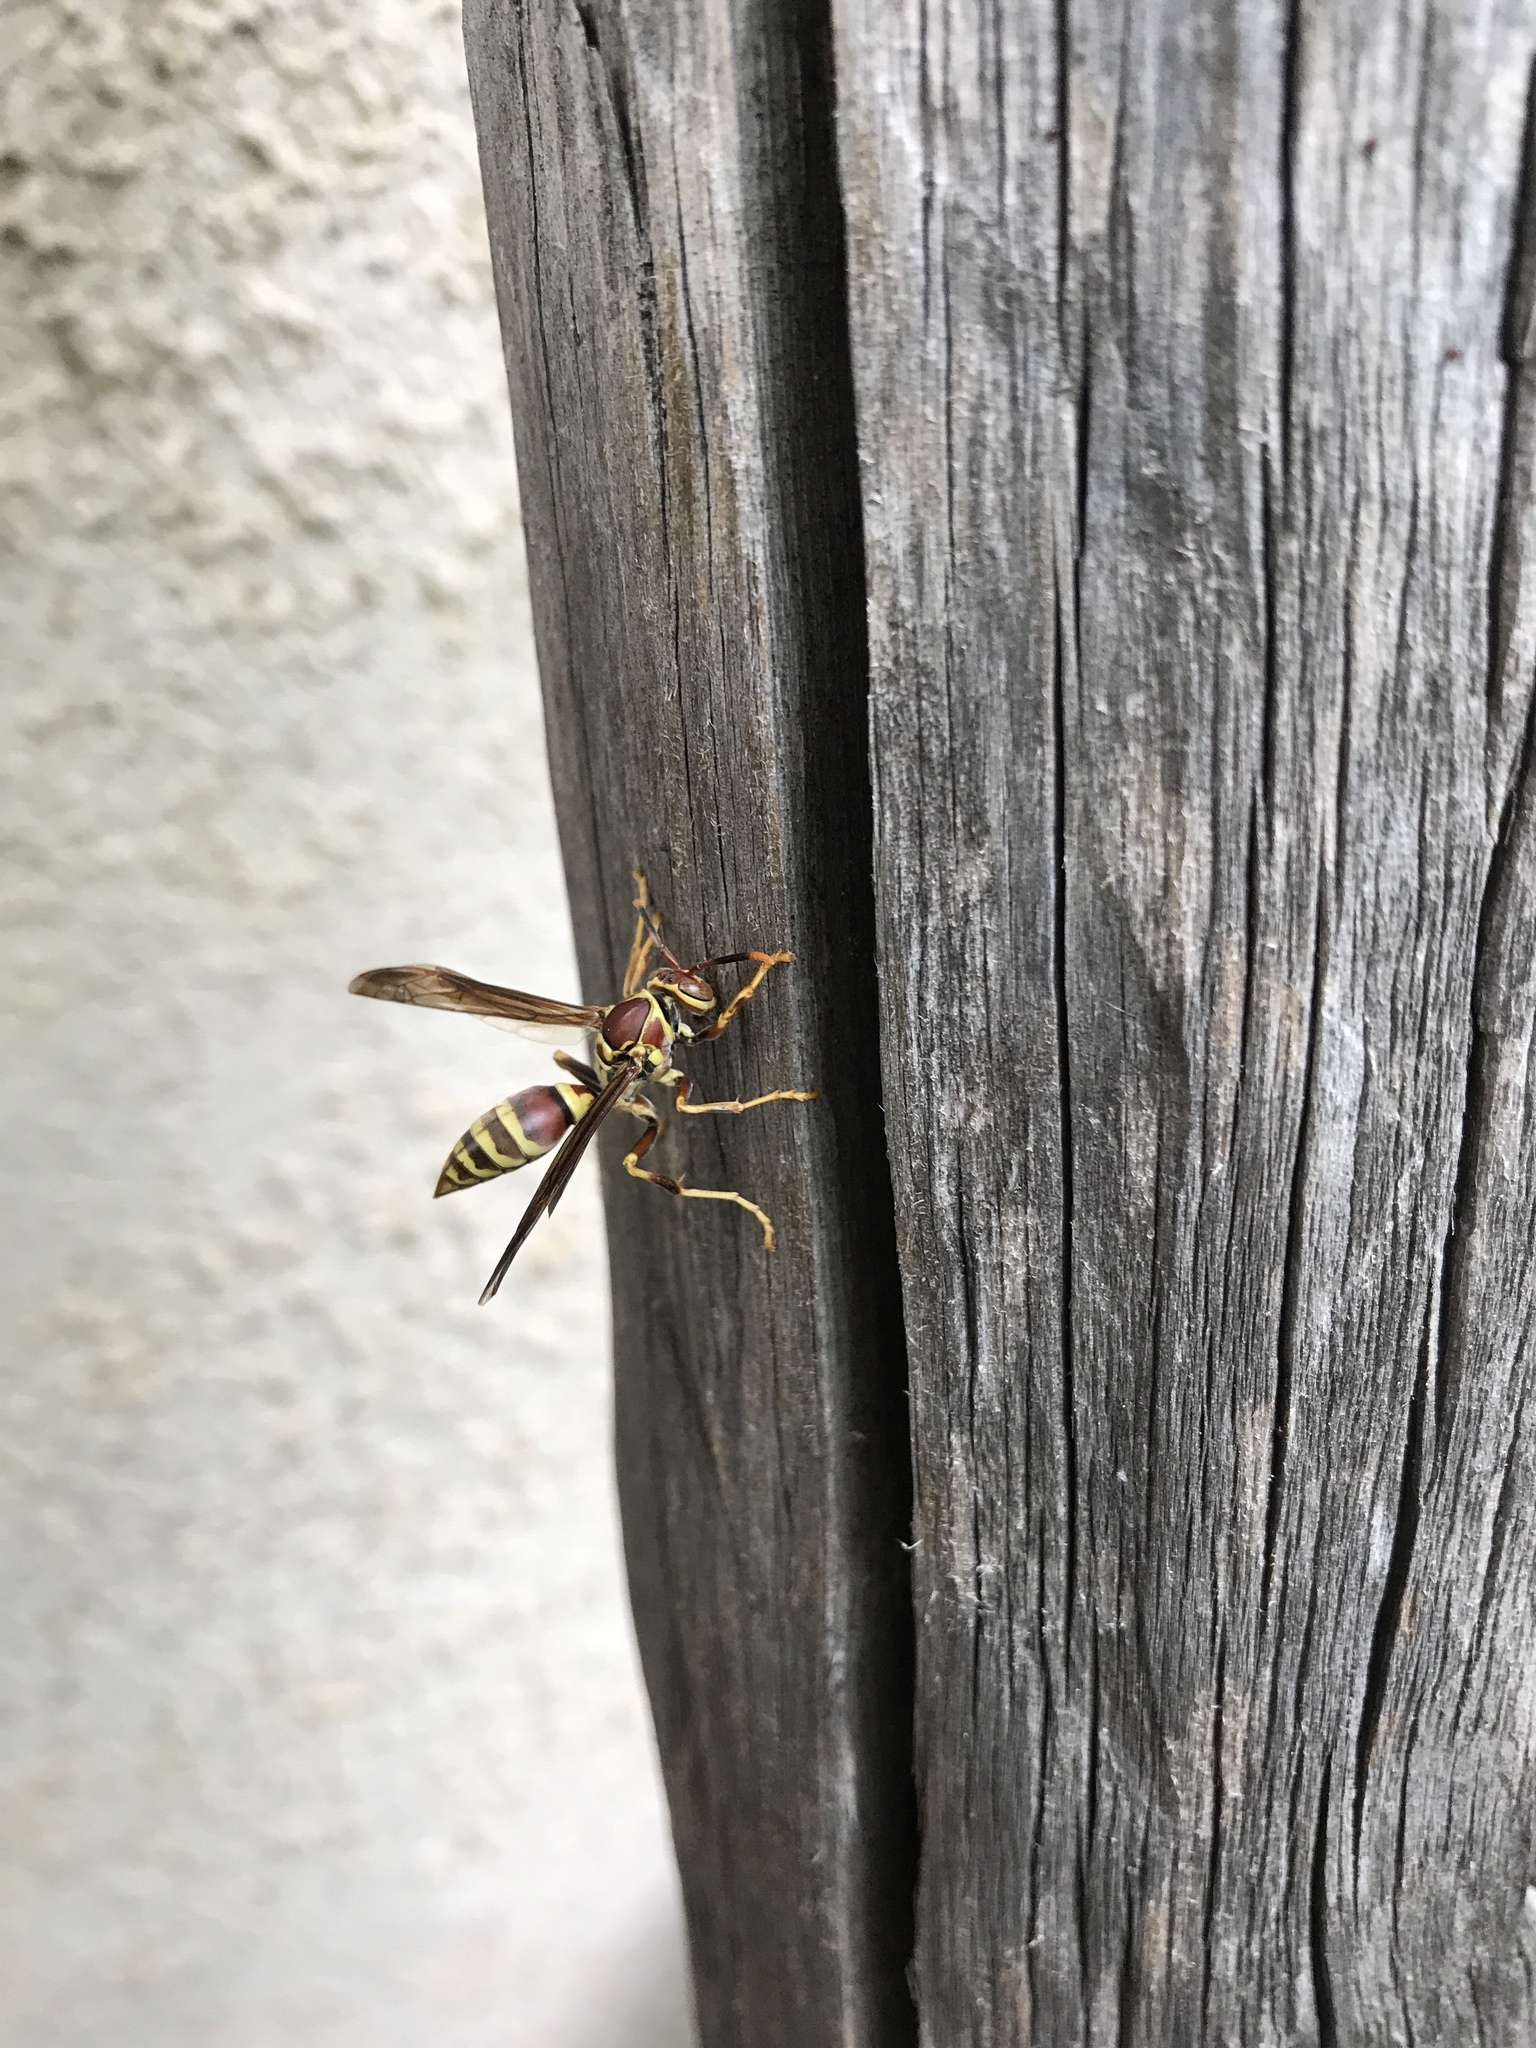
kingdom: Animalia
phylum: Arthropoda
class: Insecta
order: Hymenoptera
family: Eumenidae
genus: Polistes
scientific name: Polistes exclamans
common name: Paper wasp
